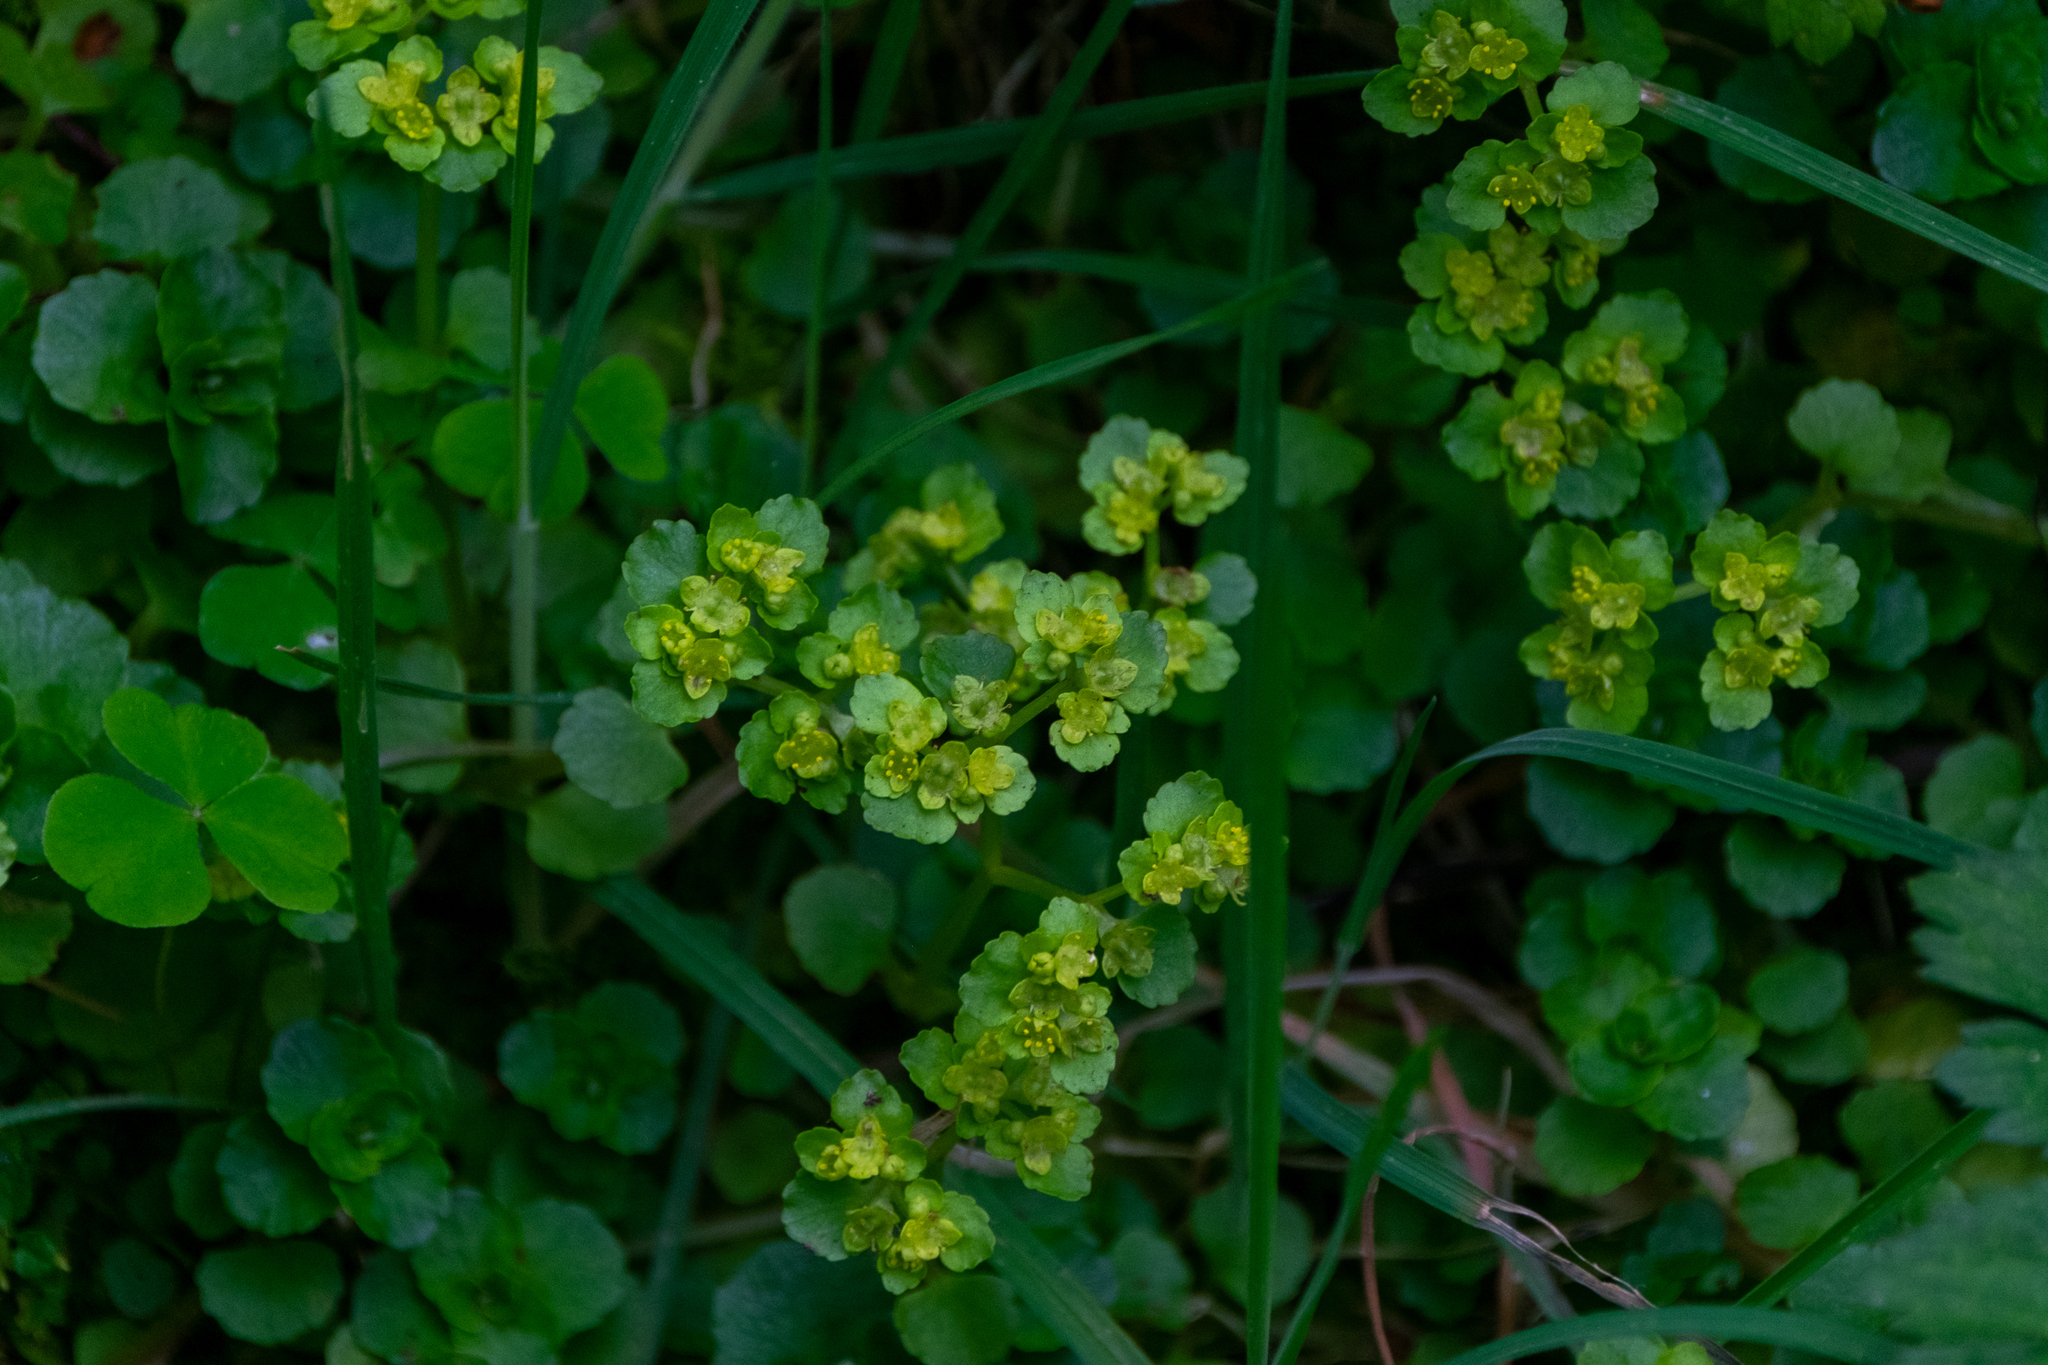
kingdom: Plantae
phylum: Tracheophyta
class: Magnoliopsida
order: Saxifragales
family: Saxifragaceae
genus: Chrysosplenium
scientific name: Chrysosplenium oppositifolium
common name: Opposite-leaved golden-saxifrage
